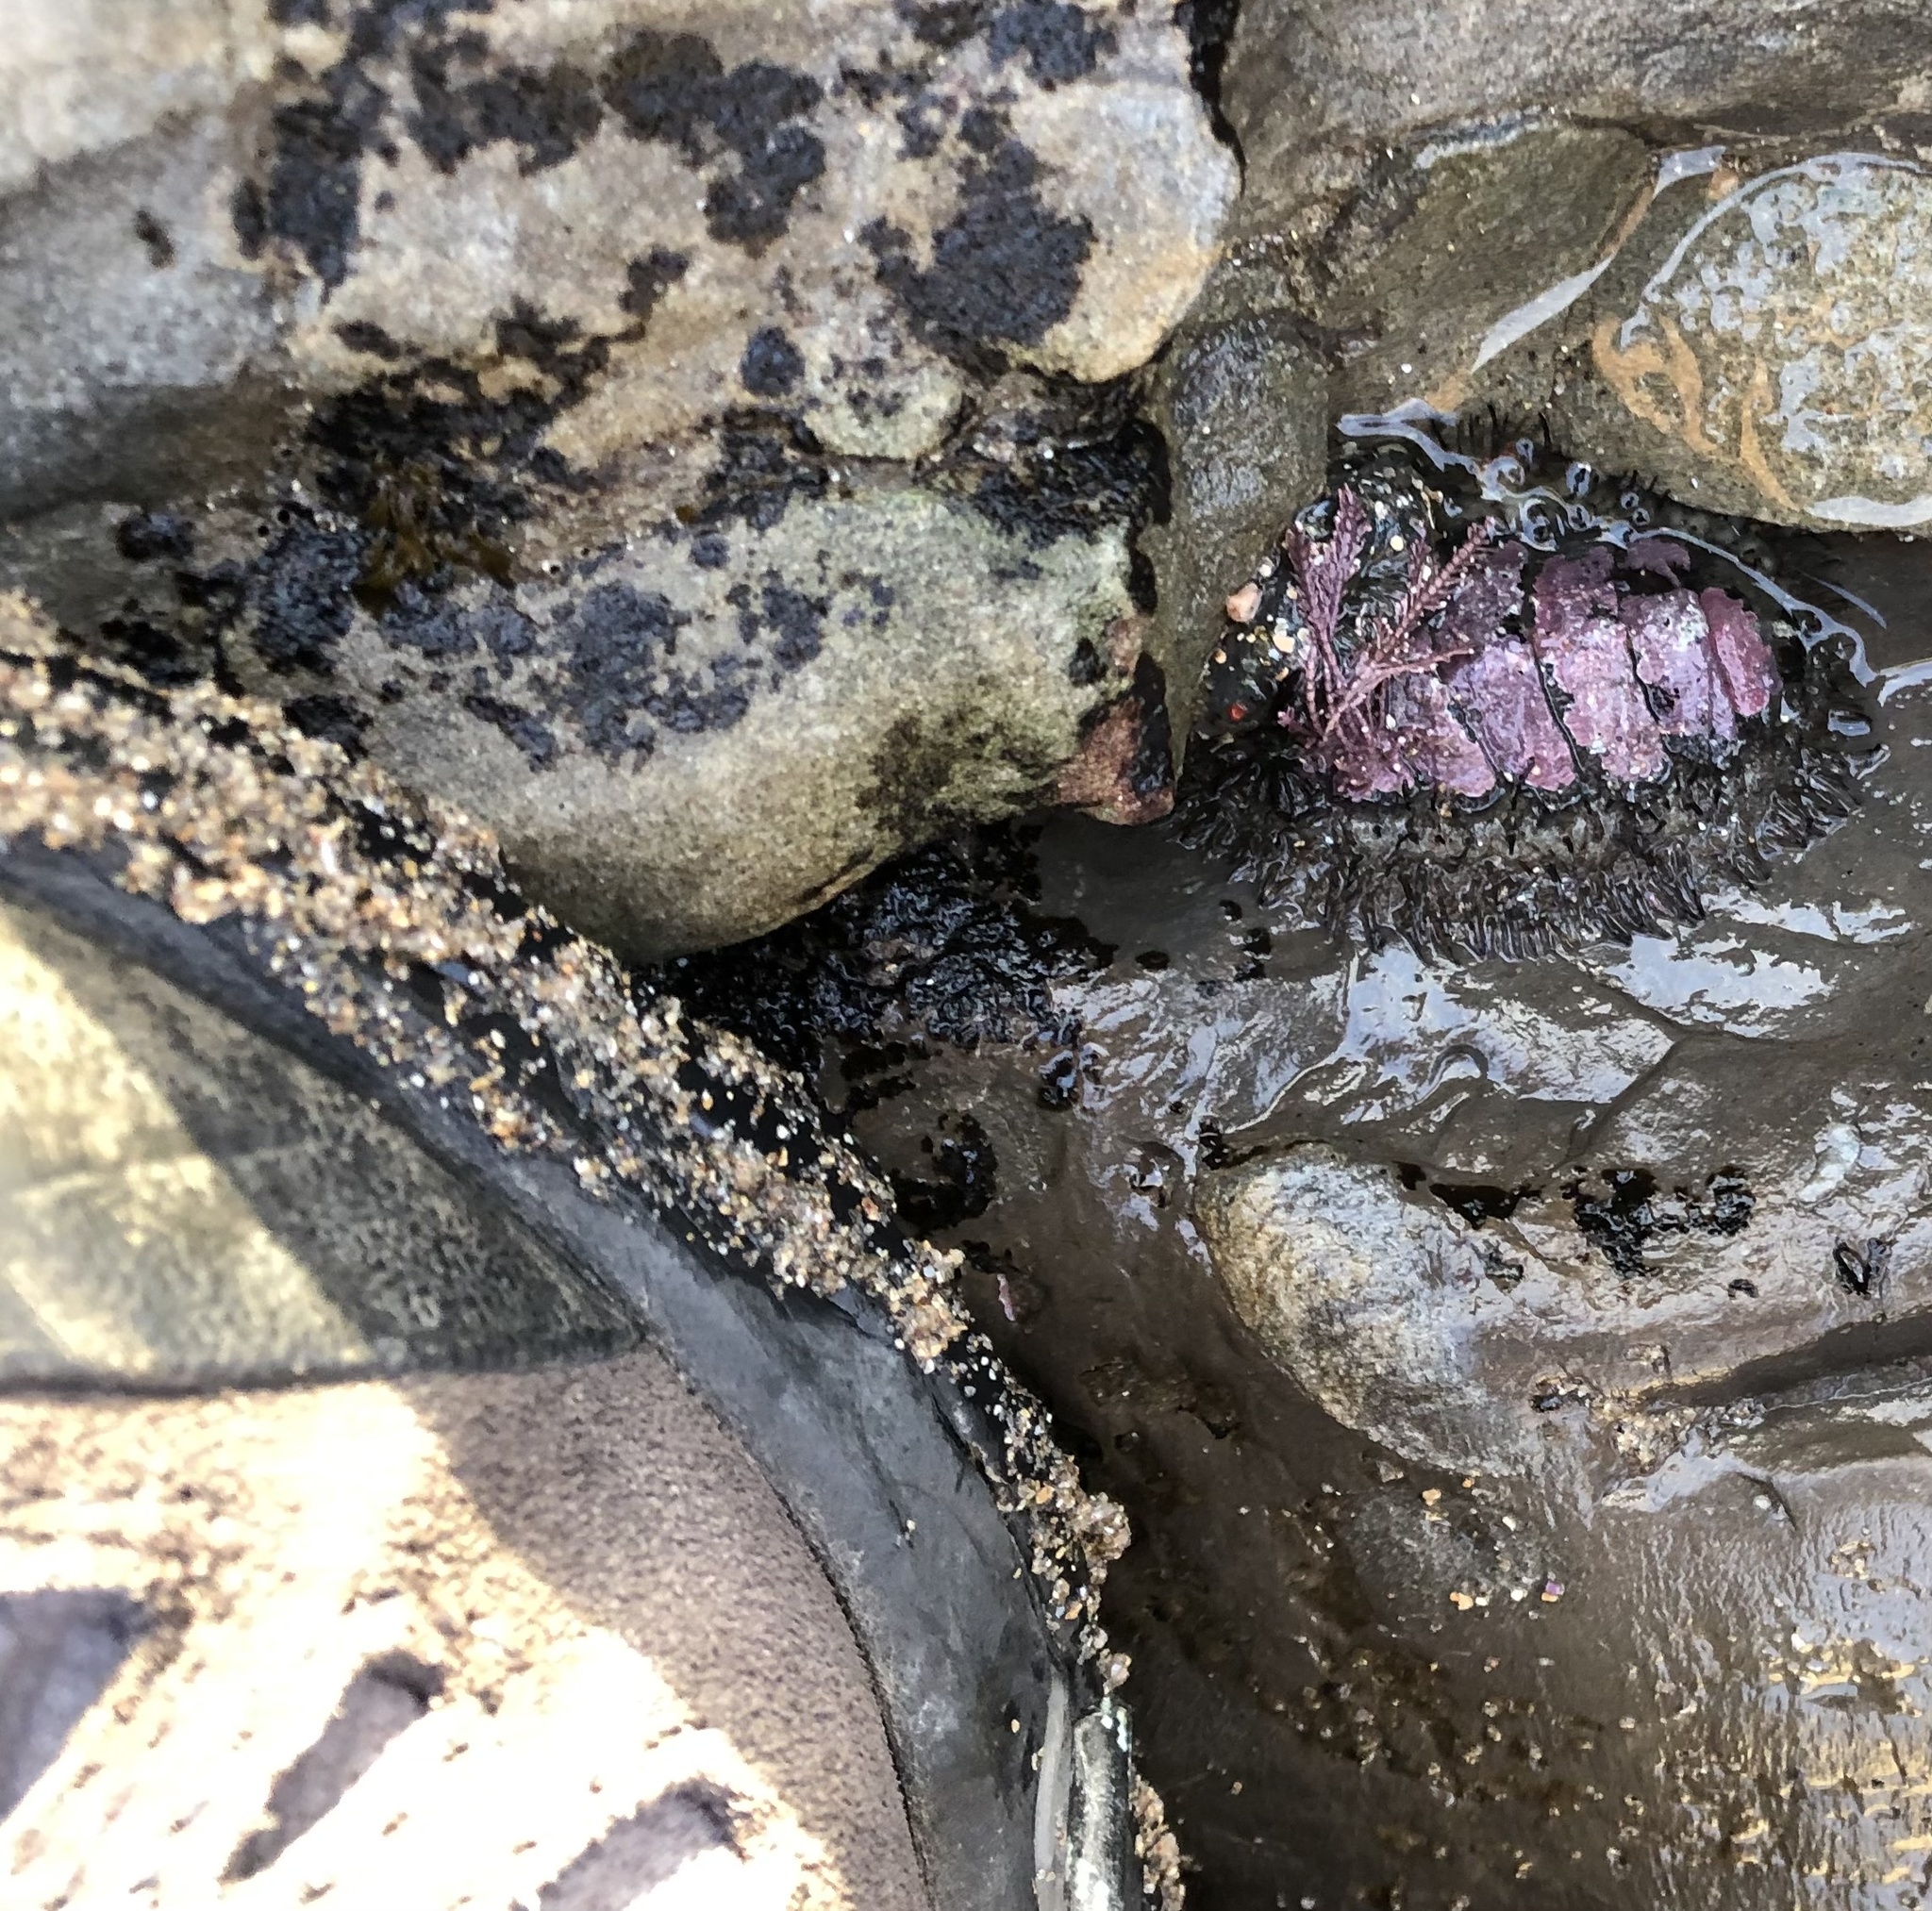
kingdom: Animalia
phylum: Mollusca
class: Polyplacophora
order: Chitonida
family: Mopaliidae
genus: Mopalia
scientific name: Mopalia muscosa
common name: Mossy chiton
